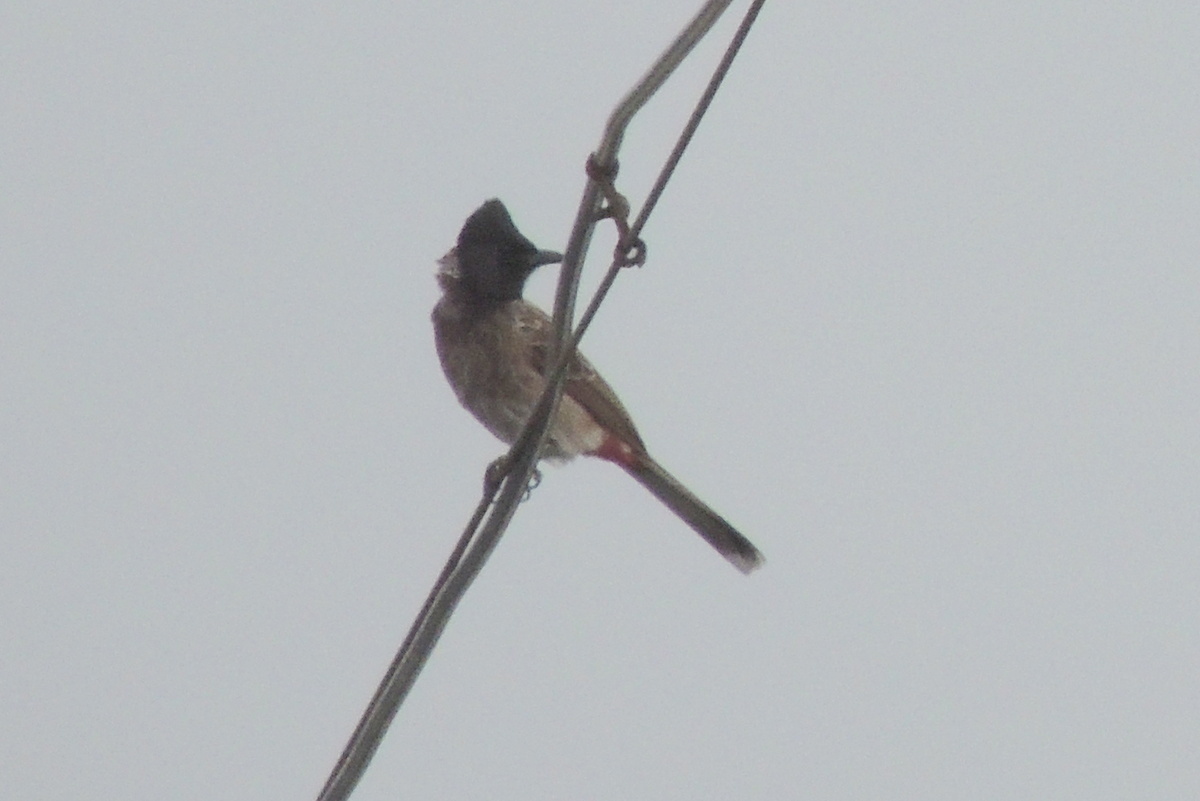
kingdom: Animalia
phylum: Chordata
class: Aves
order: Passeriformes
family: Pycnonotidae
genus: Pycnonotus
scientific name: Pycnonotus cafer
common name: Red-vented bulbul
